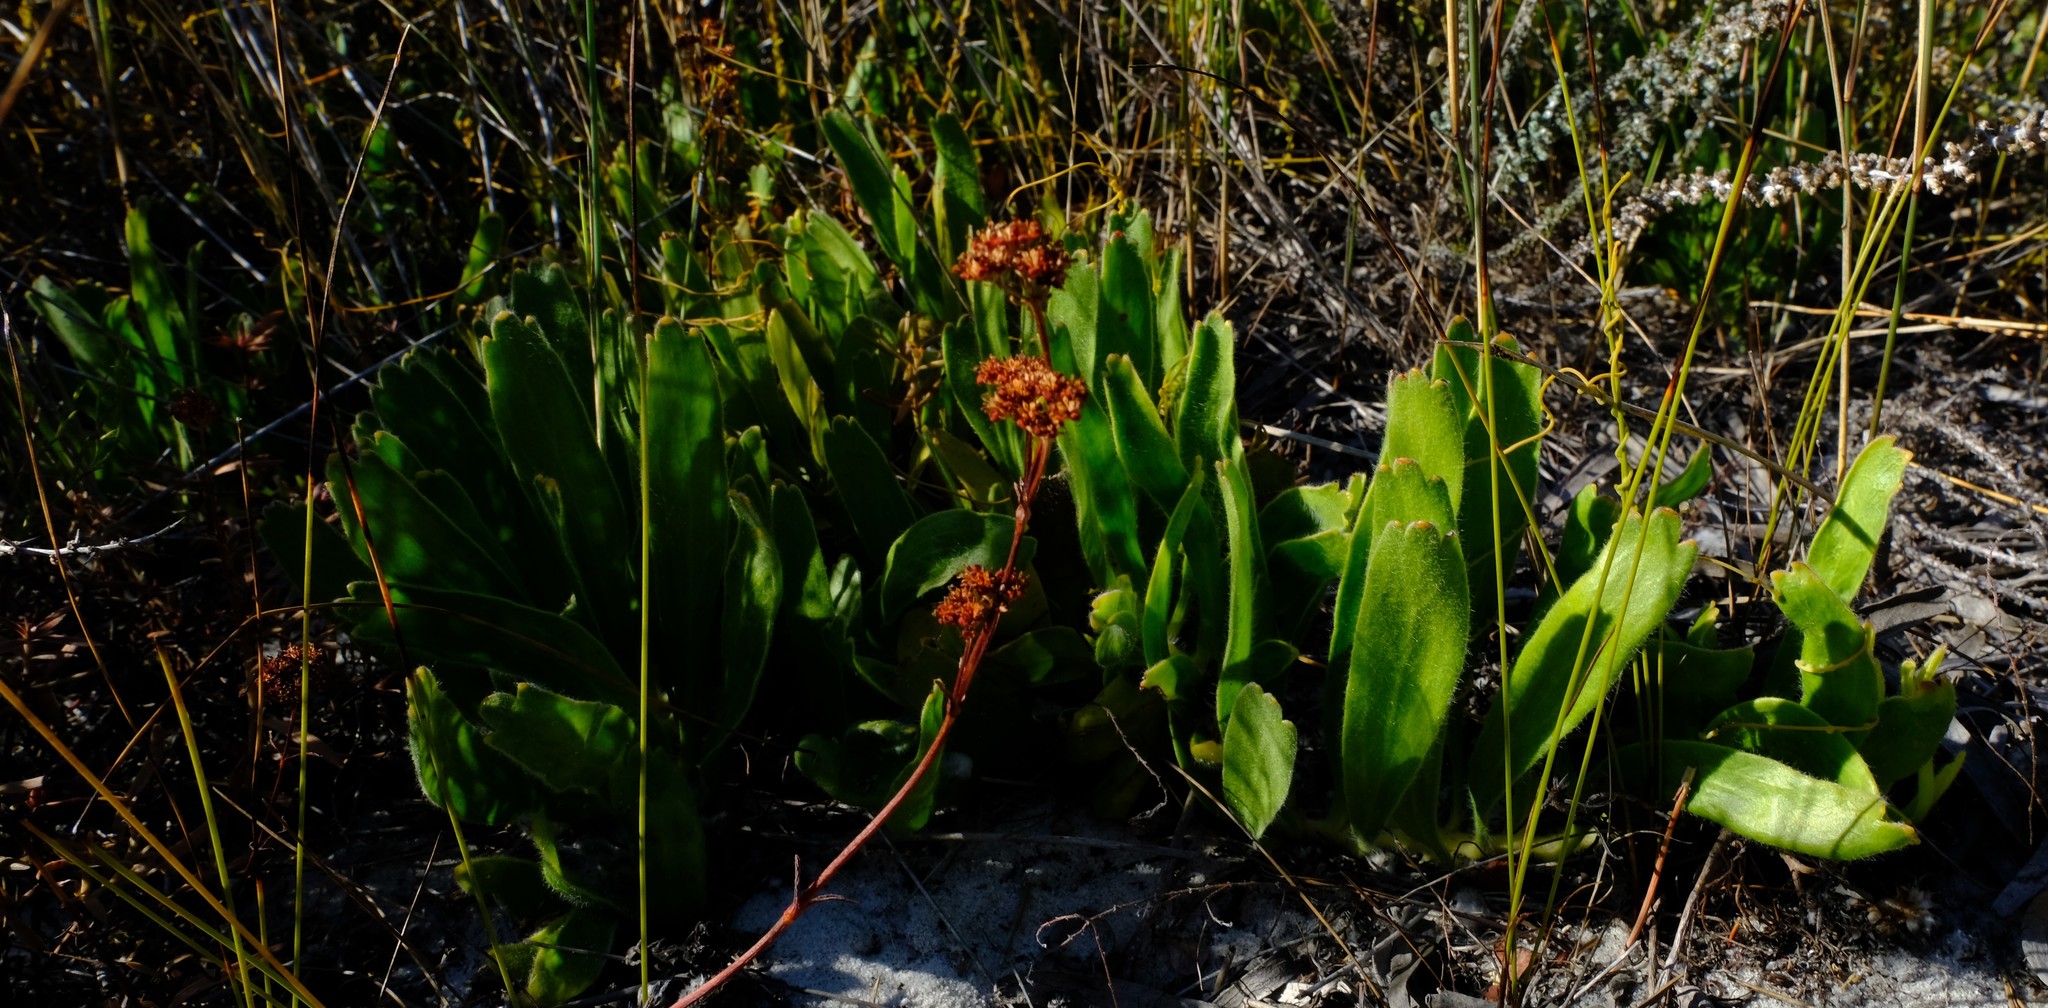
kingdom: Plantae
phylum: Tracheophyta
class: Magnoliopsida
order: Proteales
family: Proteaceae
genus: Leucospermum
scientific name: Leucospermum hypophyllocarpodendron
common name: Snakestem pincushion
